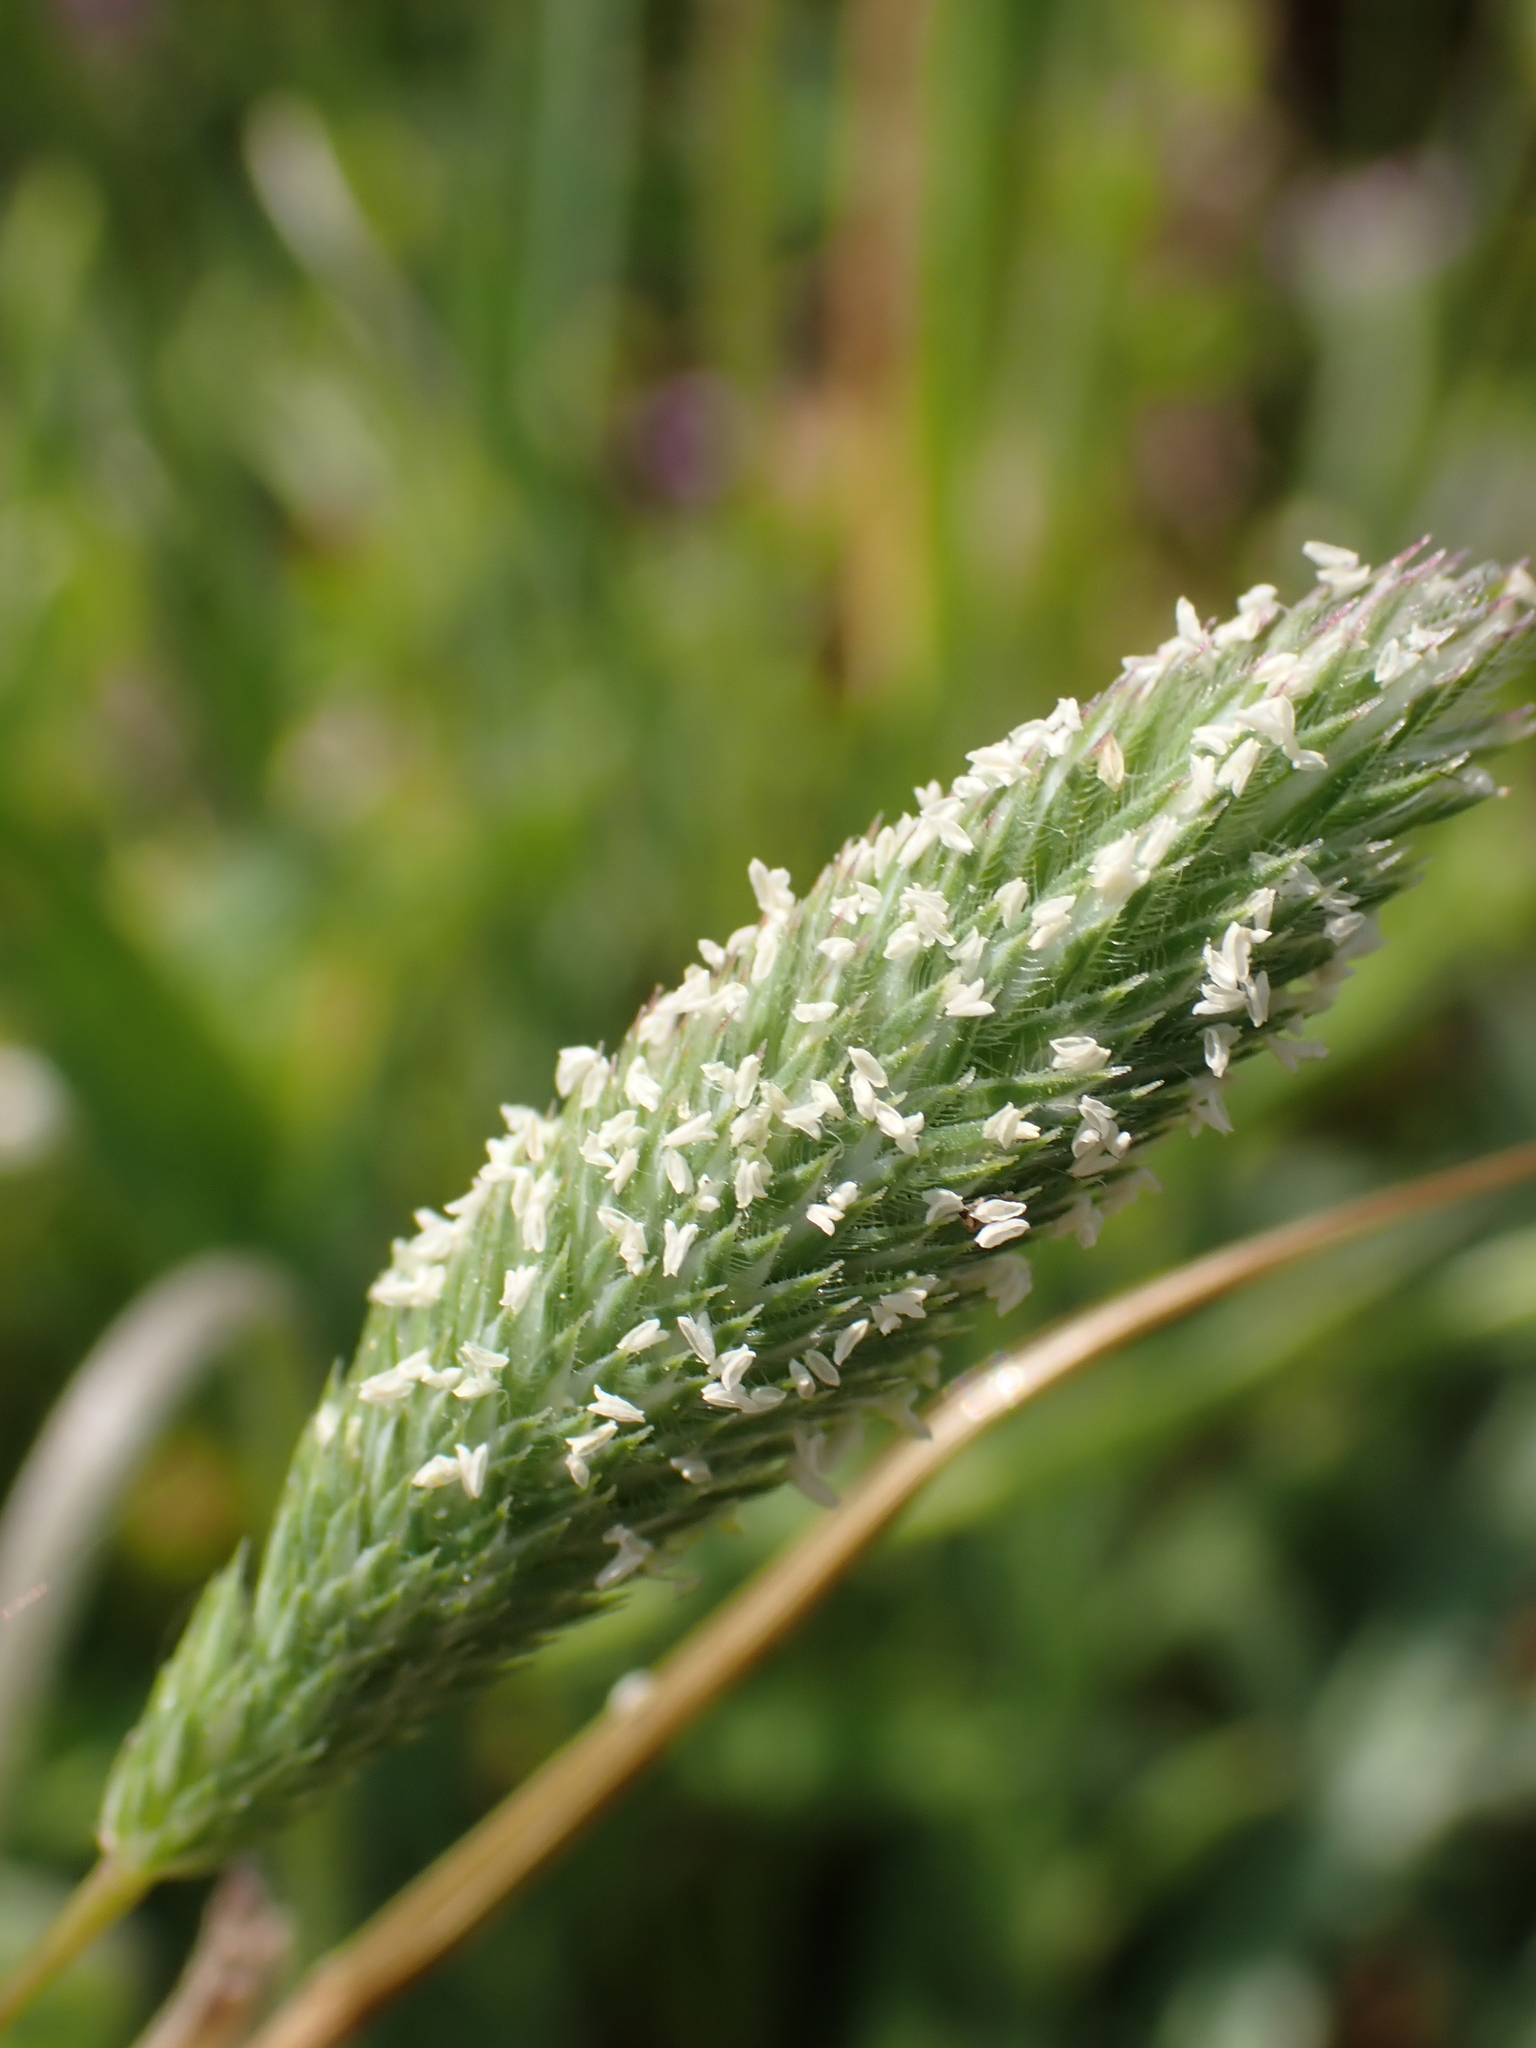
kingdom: Plantae
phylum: Tracheophyta
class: Liliopsida
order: Poales
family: Poaceae
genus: Phleum
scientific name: Phleum arenarium
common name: Sand cat's-tail
